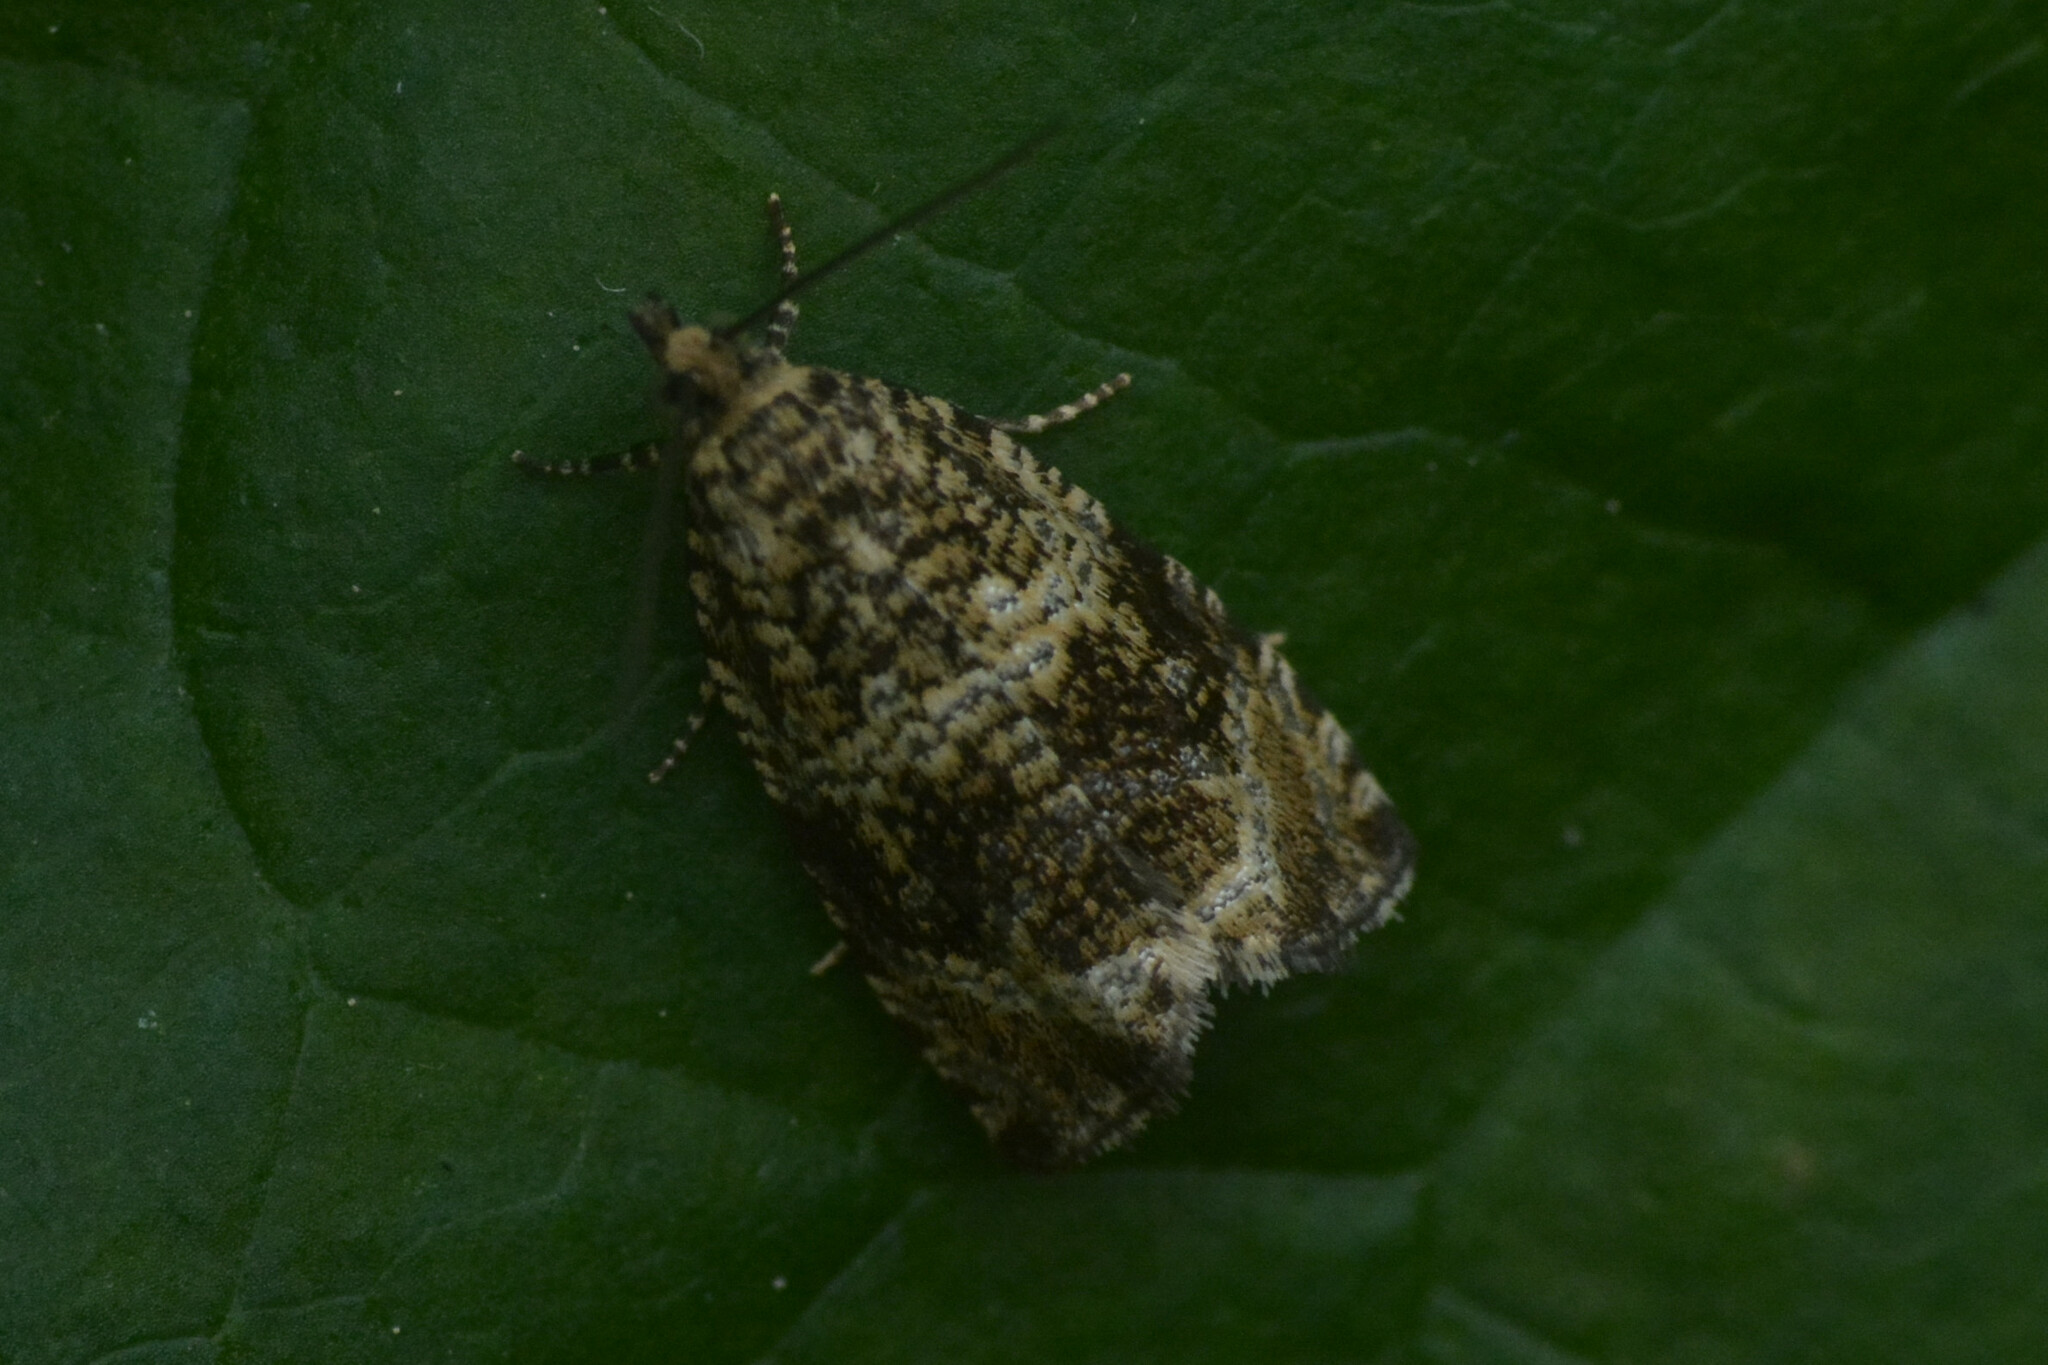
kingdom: Animalia
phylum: Arthropoda
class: Insecta
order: Lepidoptera
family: Tortricidae
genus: Syricoris
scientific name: Syricoris lacunana
